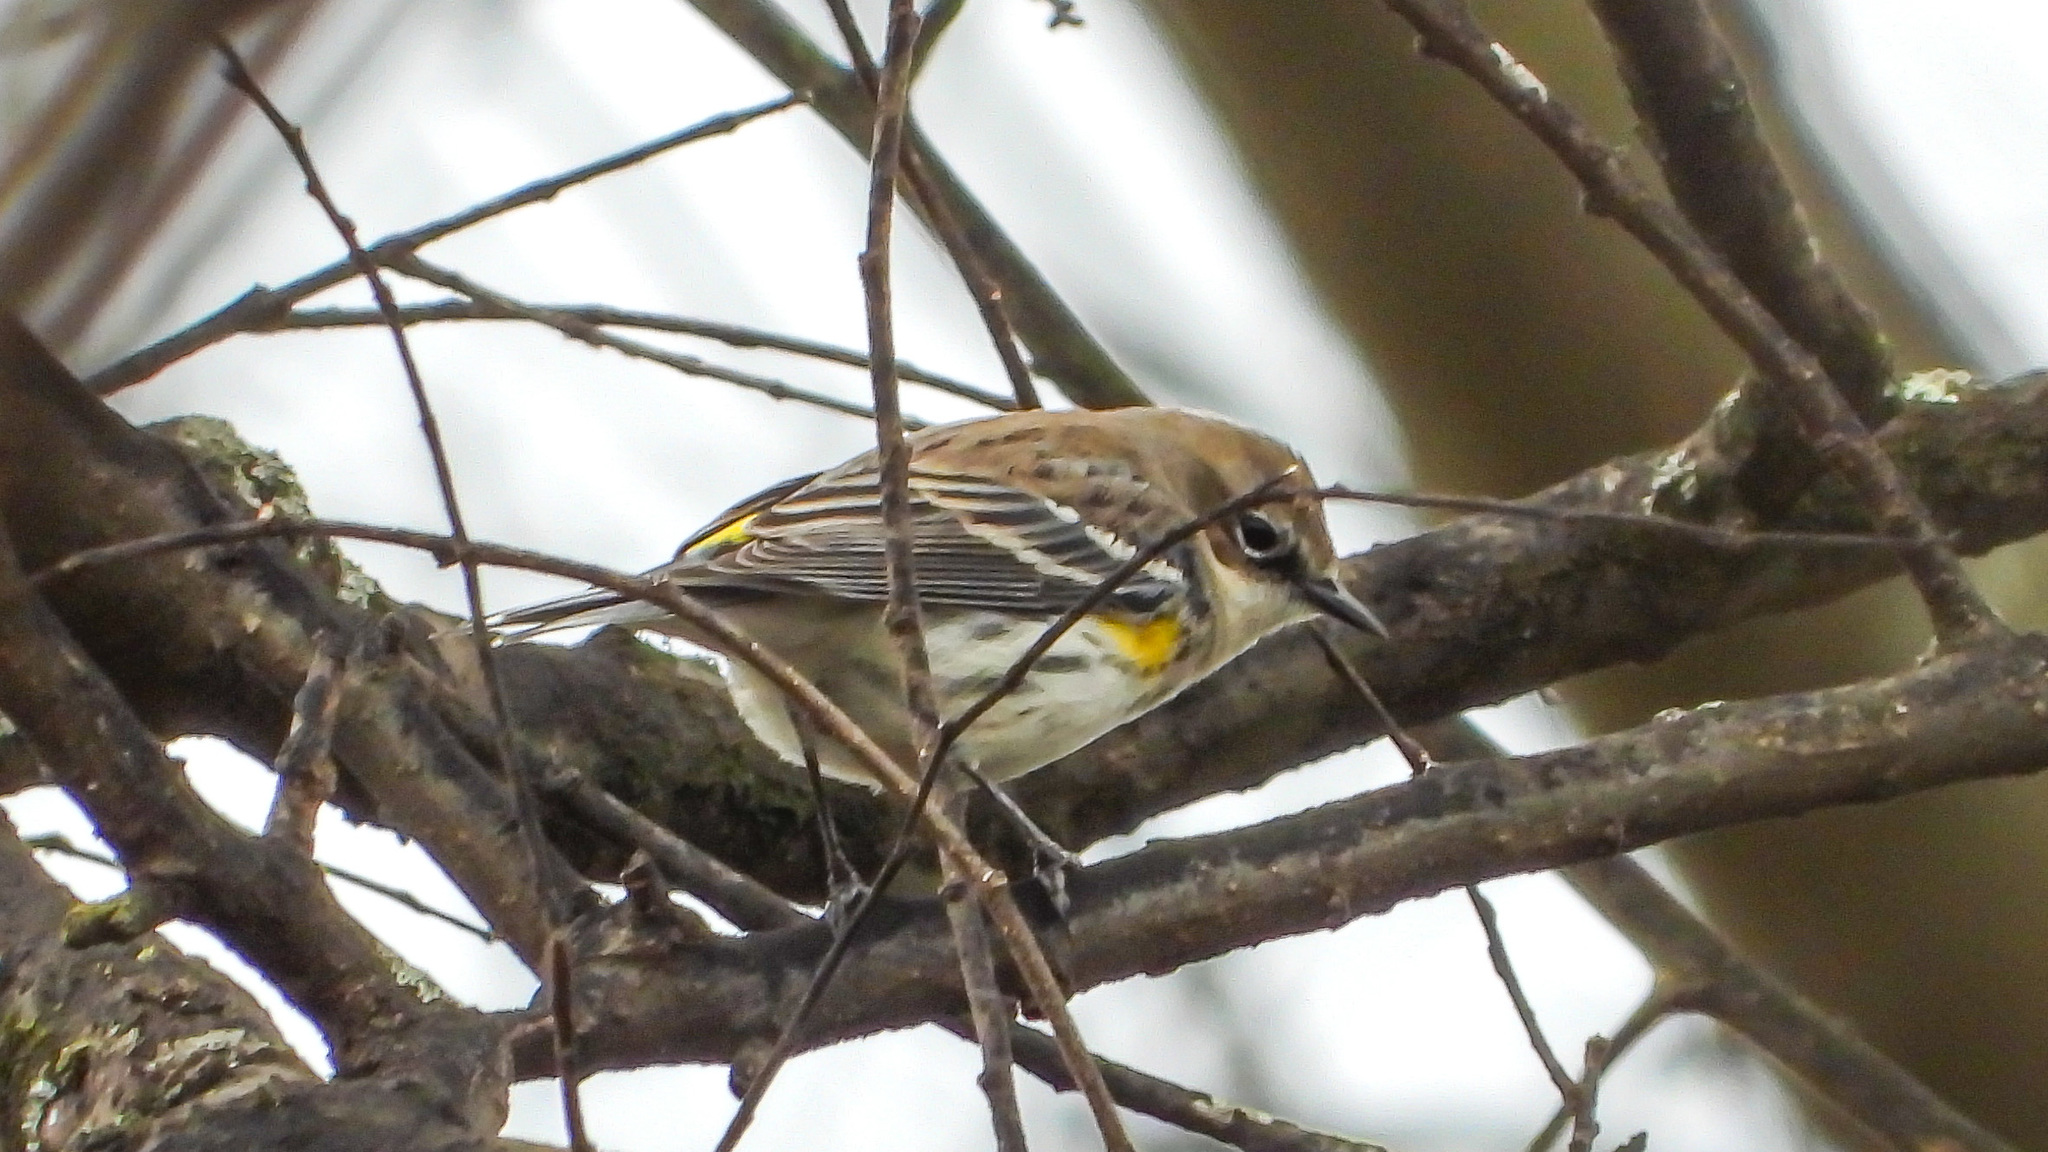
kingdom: Animalia
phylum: Chordata
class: Aves
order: Passeriformes
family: Parulidae
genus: Setophaga
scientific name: Setophaga coronata
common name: Myrtle warbler
